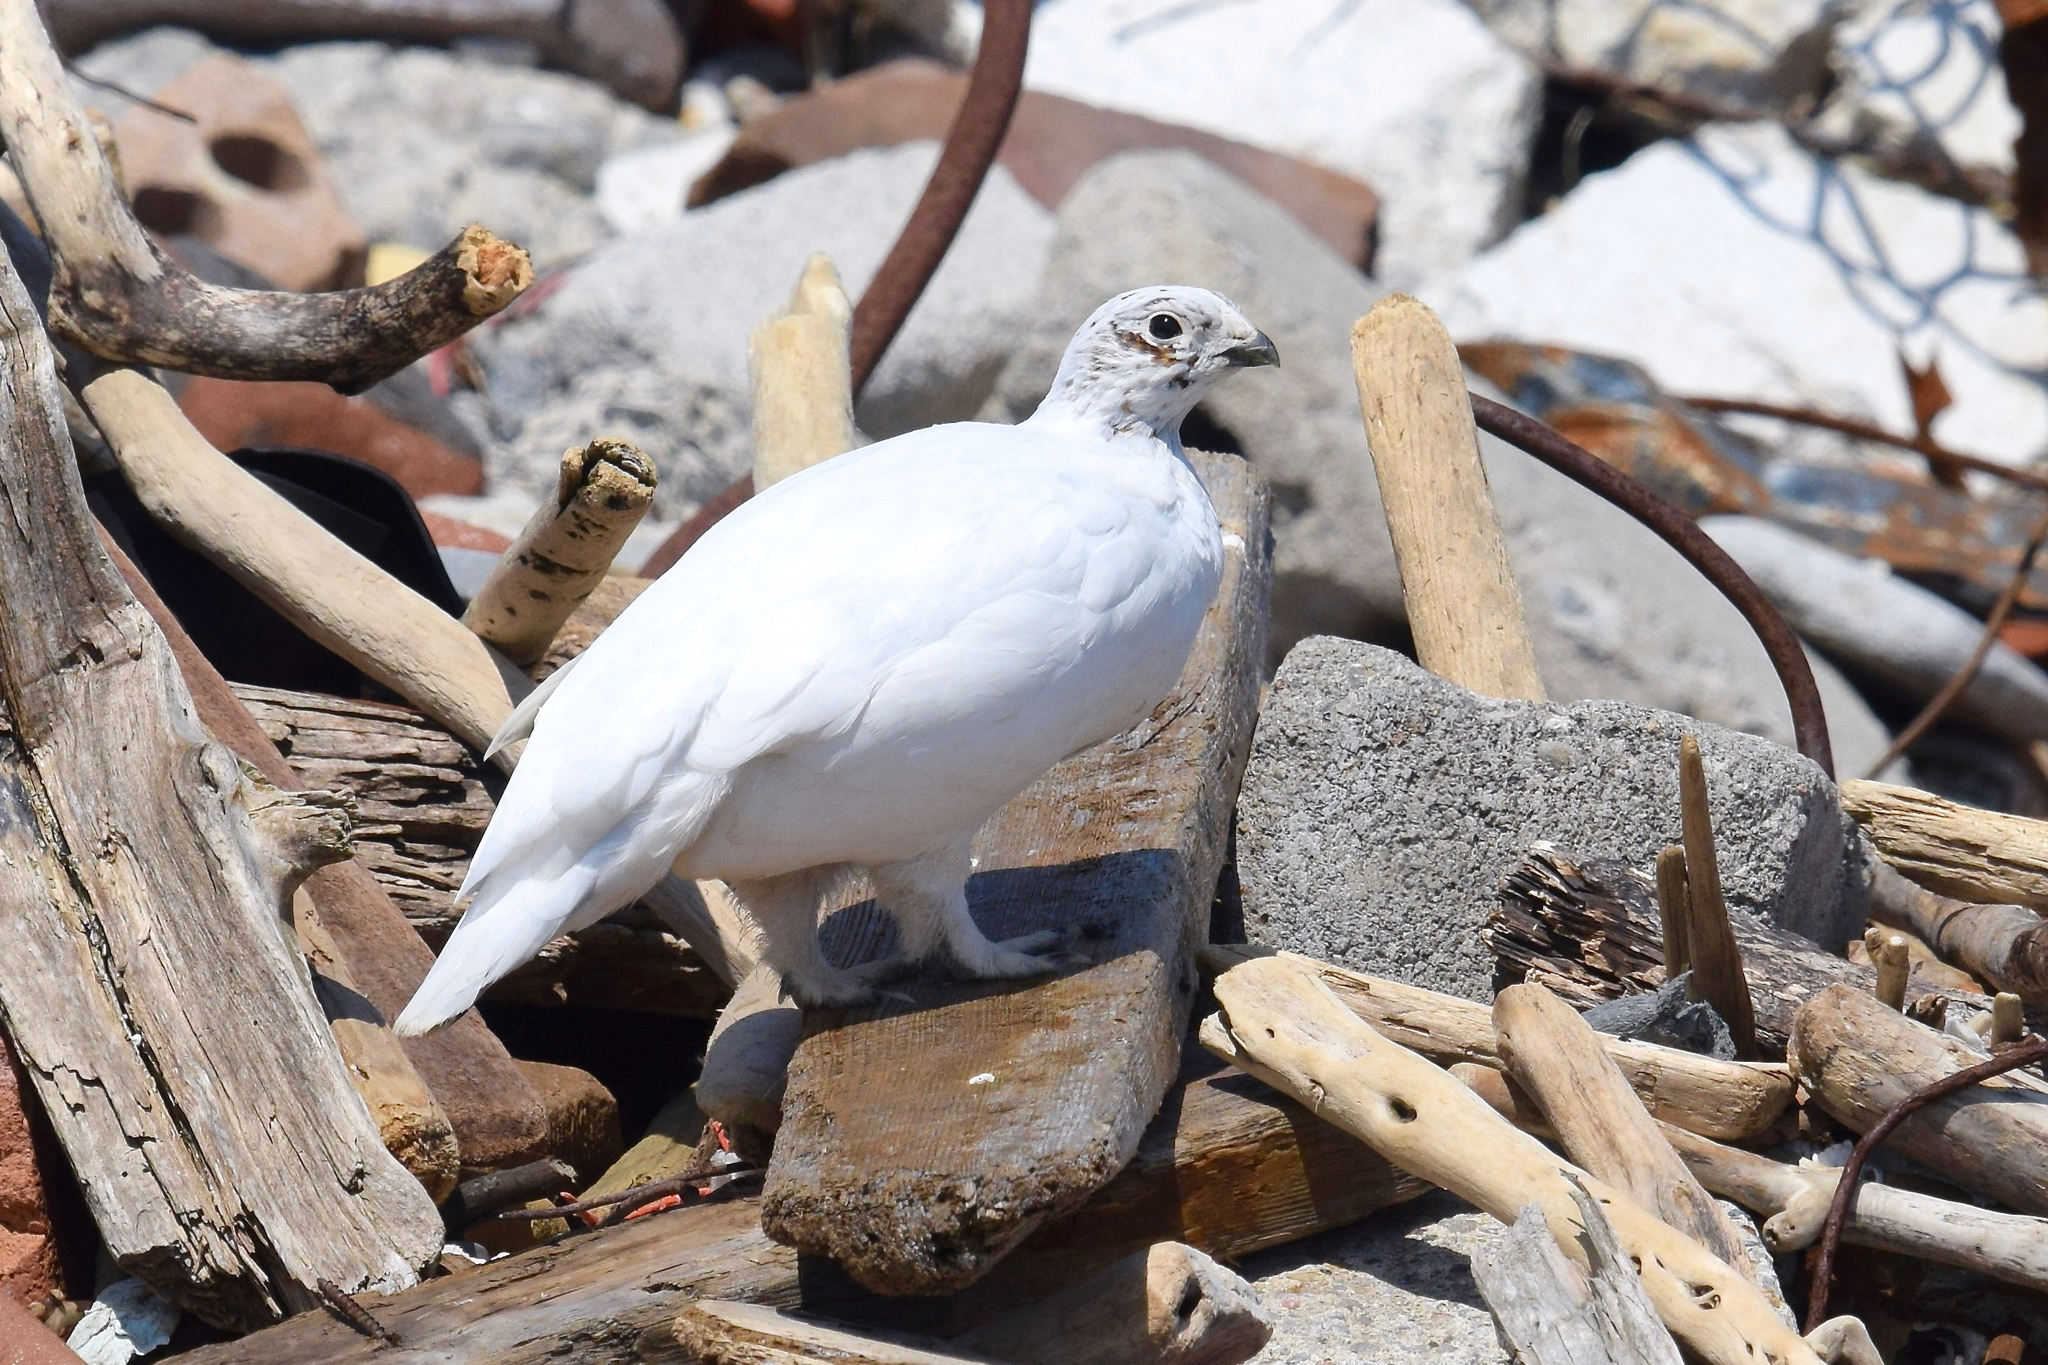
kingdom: Animalia
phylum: Chordata
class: Aves
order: Galliformes
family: Phasianidae
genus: Lagopus
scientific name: Lagopus lagopus
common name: Willow ptarmigan
